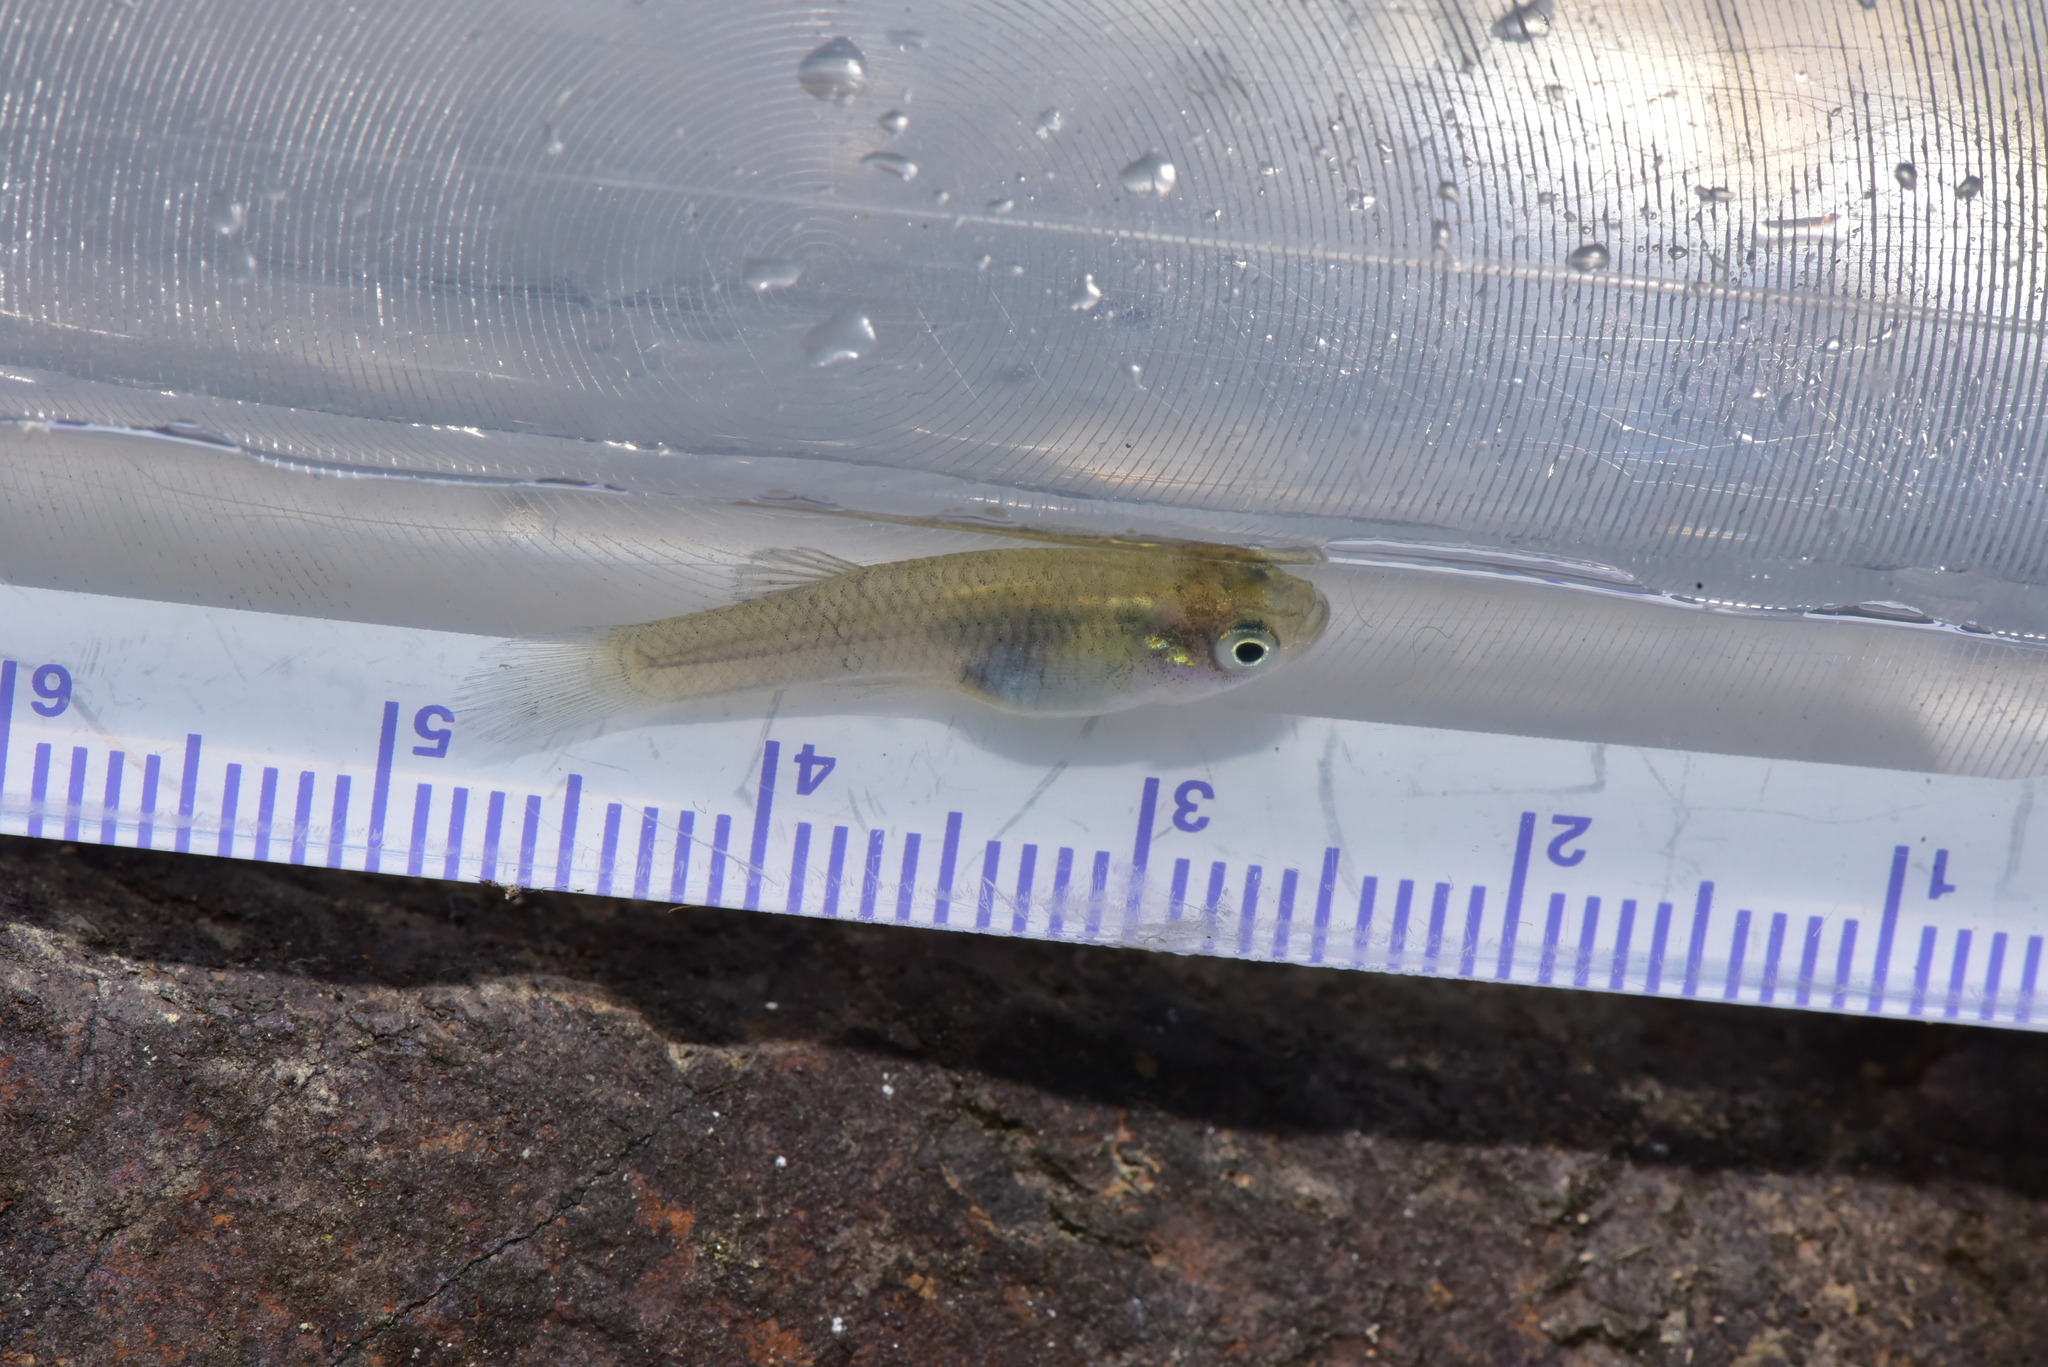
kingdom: Animalia
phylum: Chordata
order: Cyprinodontiformes
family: Poeciliidae
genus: Gambusia
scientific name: Gambusia affinis
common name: Mosquitofish
